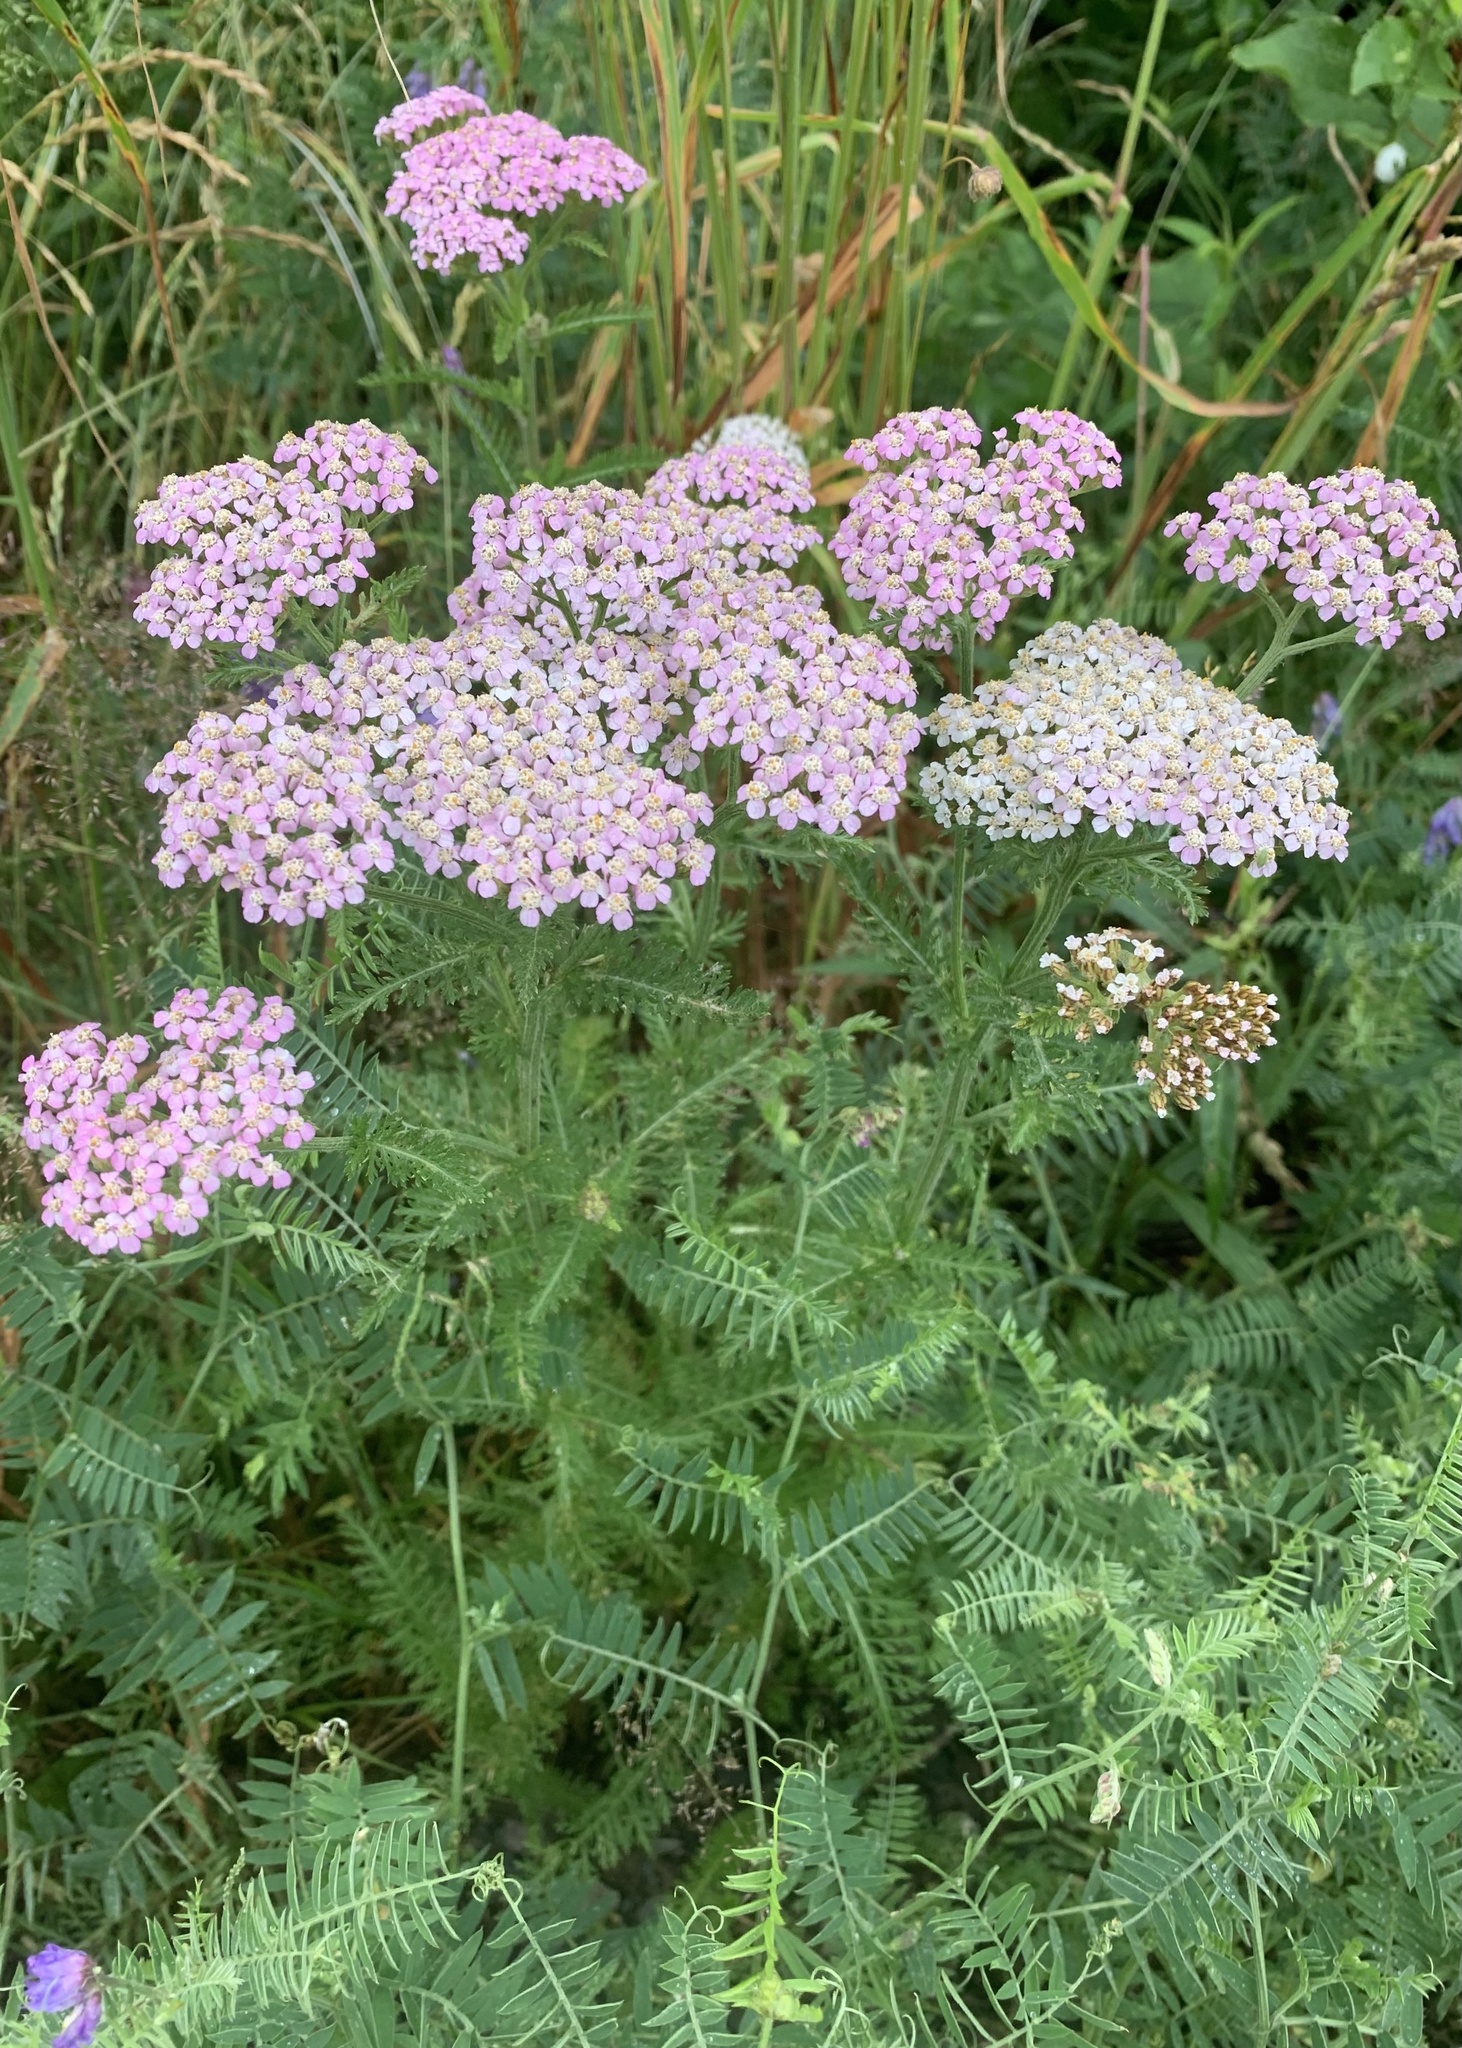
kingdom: Plantae
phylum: Tracheophyta
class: Magnoliopsida
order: Asterales
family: Asteraceae
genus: Achillea
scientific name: Achillea millefolium
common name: Yarrow
